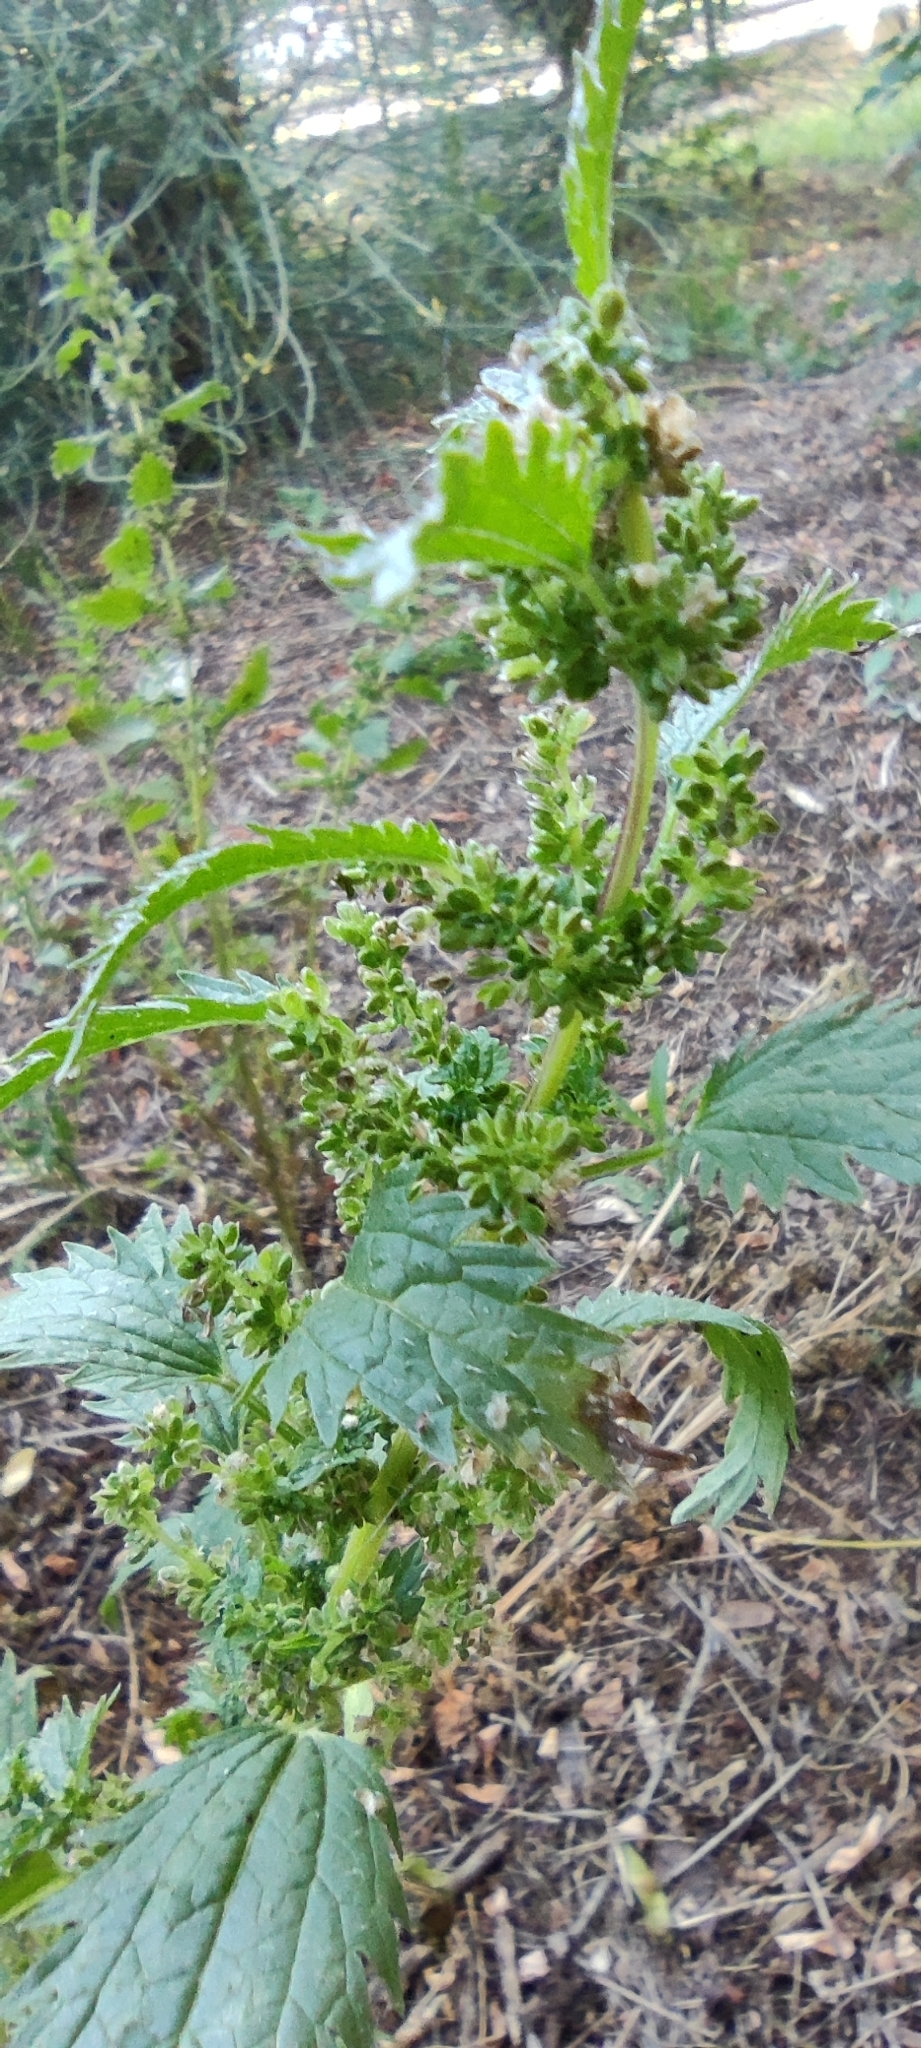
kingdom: Plantae
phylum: Tracheophyta
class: Magnoliopsida
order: Rosales
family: Urticaceae
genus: Urtica
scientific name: Urtica urens
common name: Dwarf nettle
